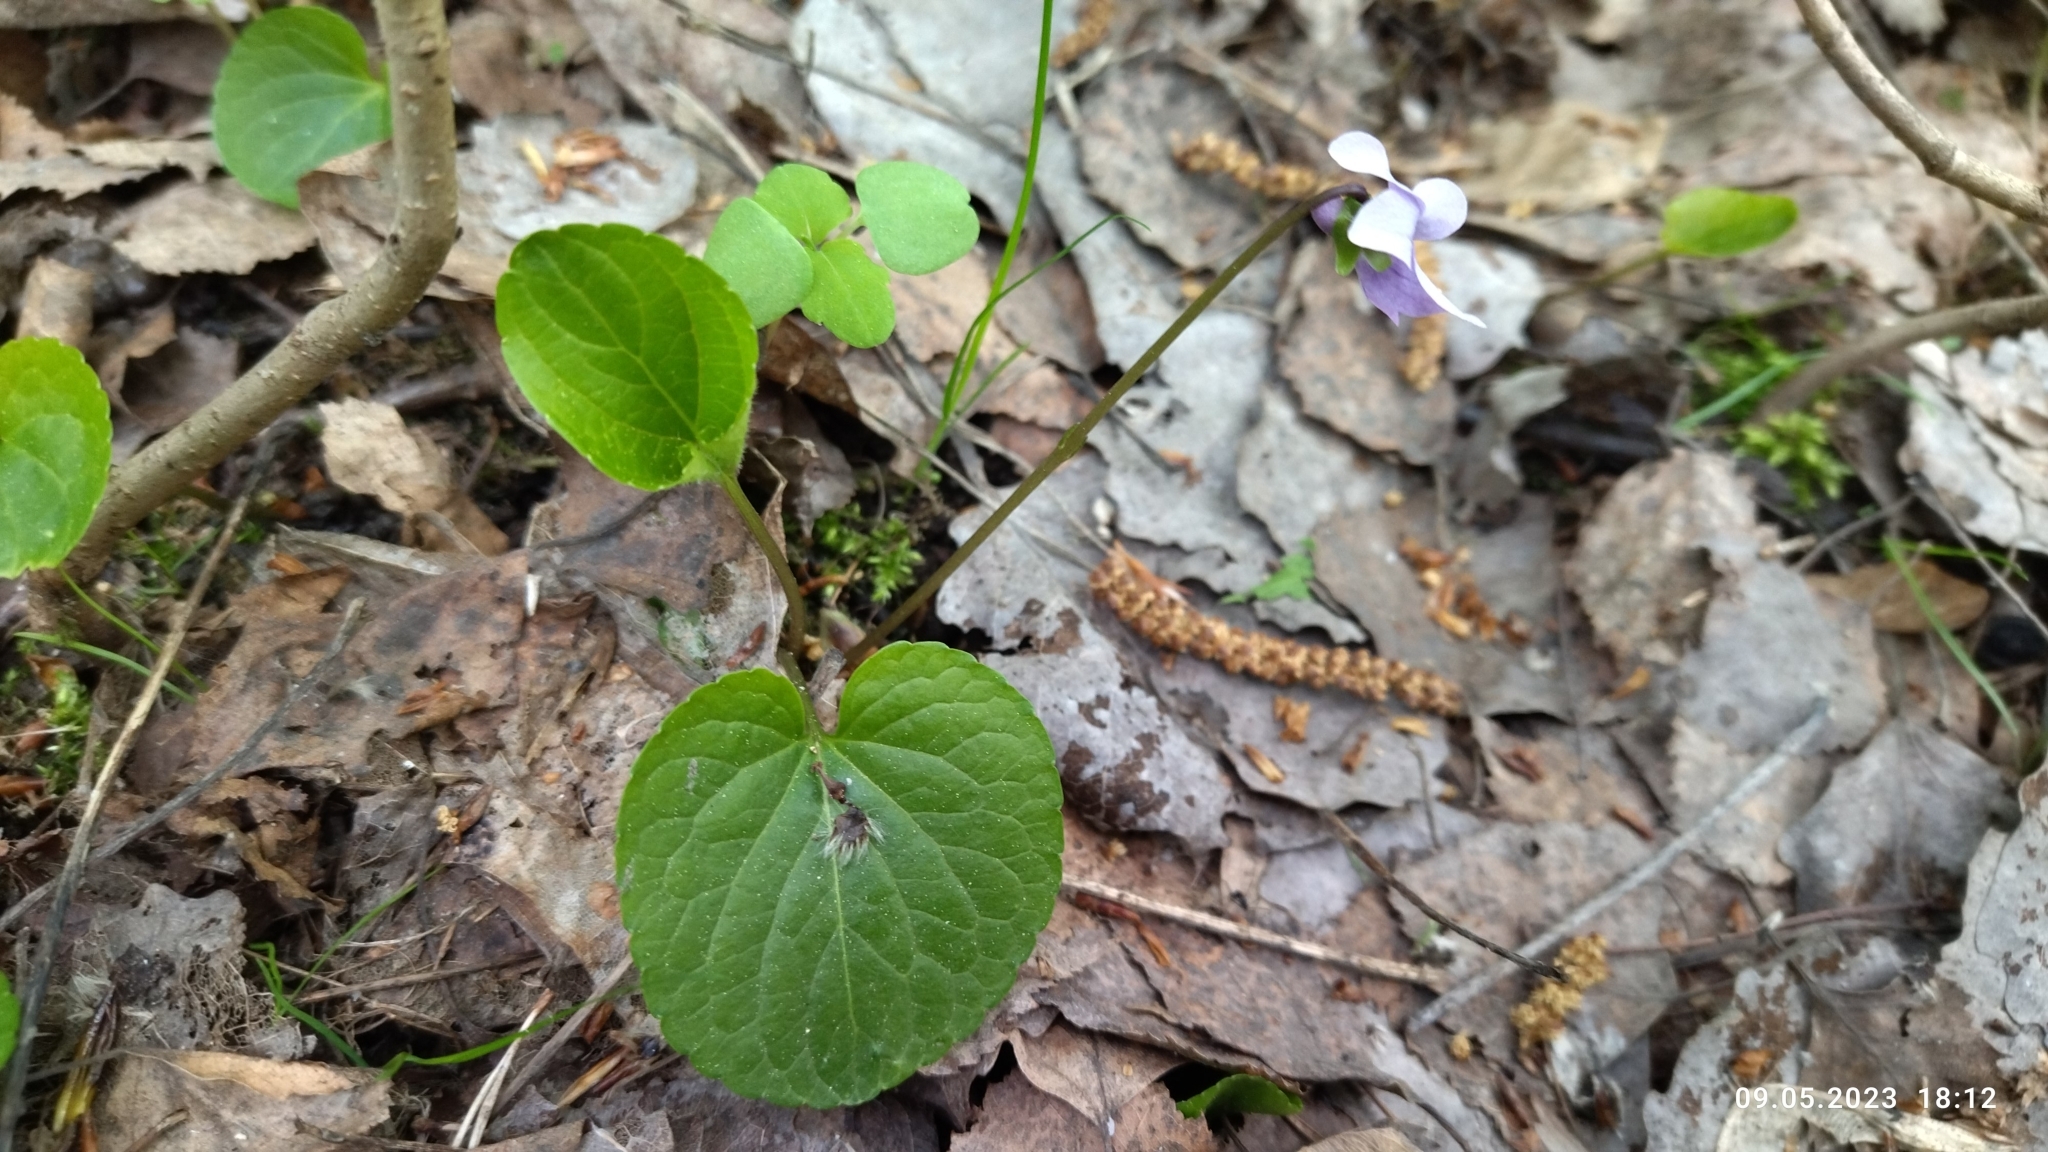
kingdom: Plantae
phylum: Tracheophyta
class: Magnoliopsida
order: Malpighiales
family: Violaceae
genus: Viola
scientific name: Viola epipsila
